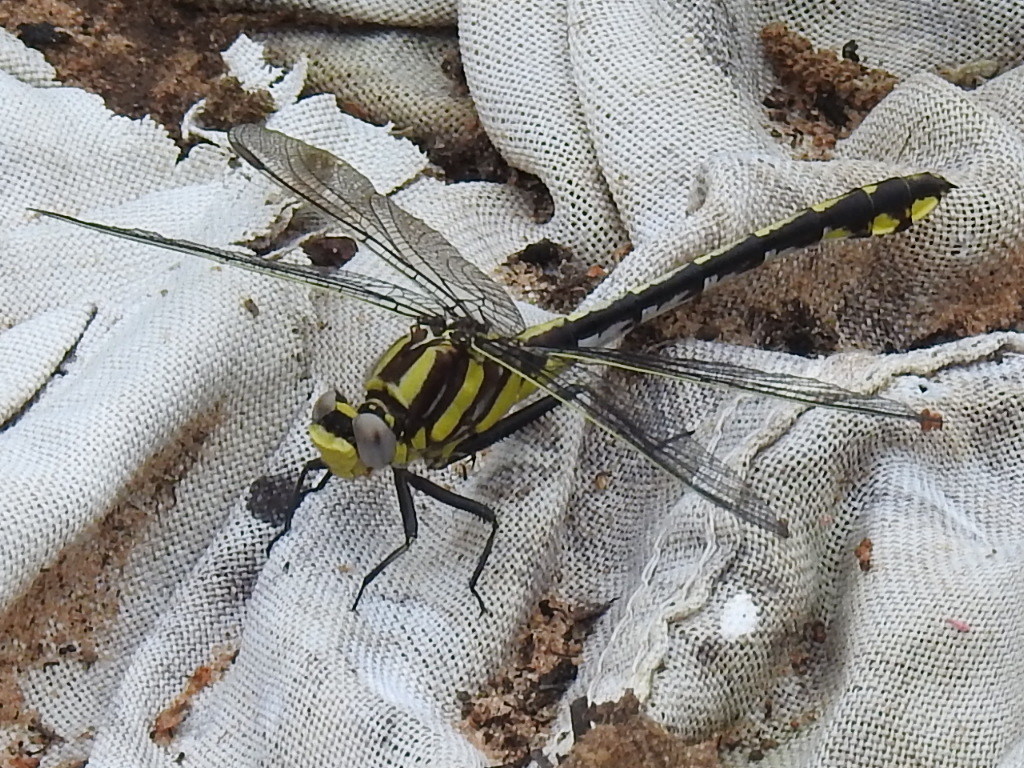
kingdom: Animalia
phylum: Arthropoda
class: Insecta
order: Odonata
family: Gomphidae
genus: Gomphurus
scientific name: Gomphurus externus
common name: Plains clubtail
